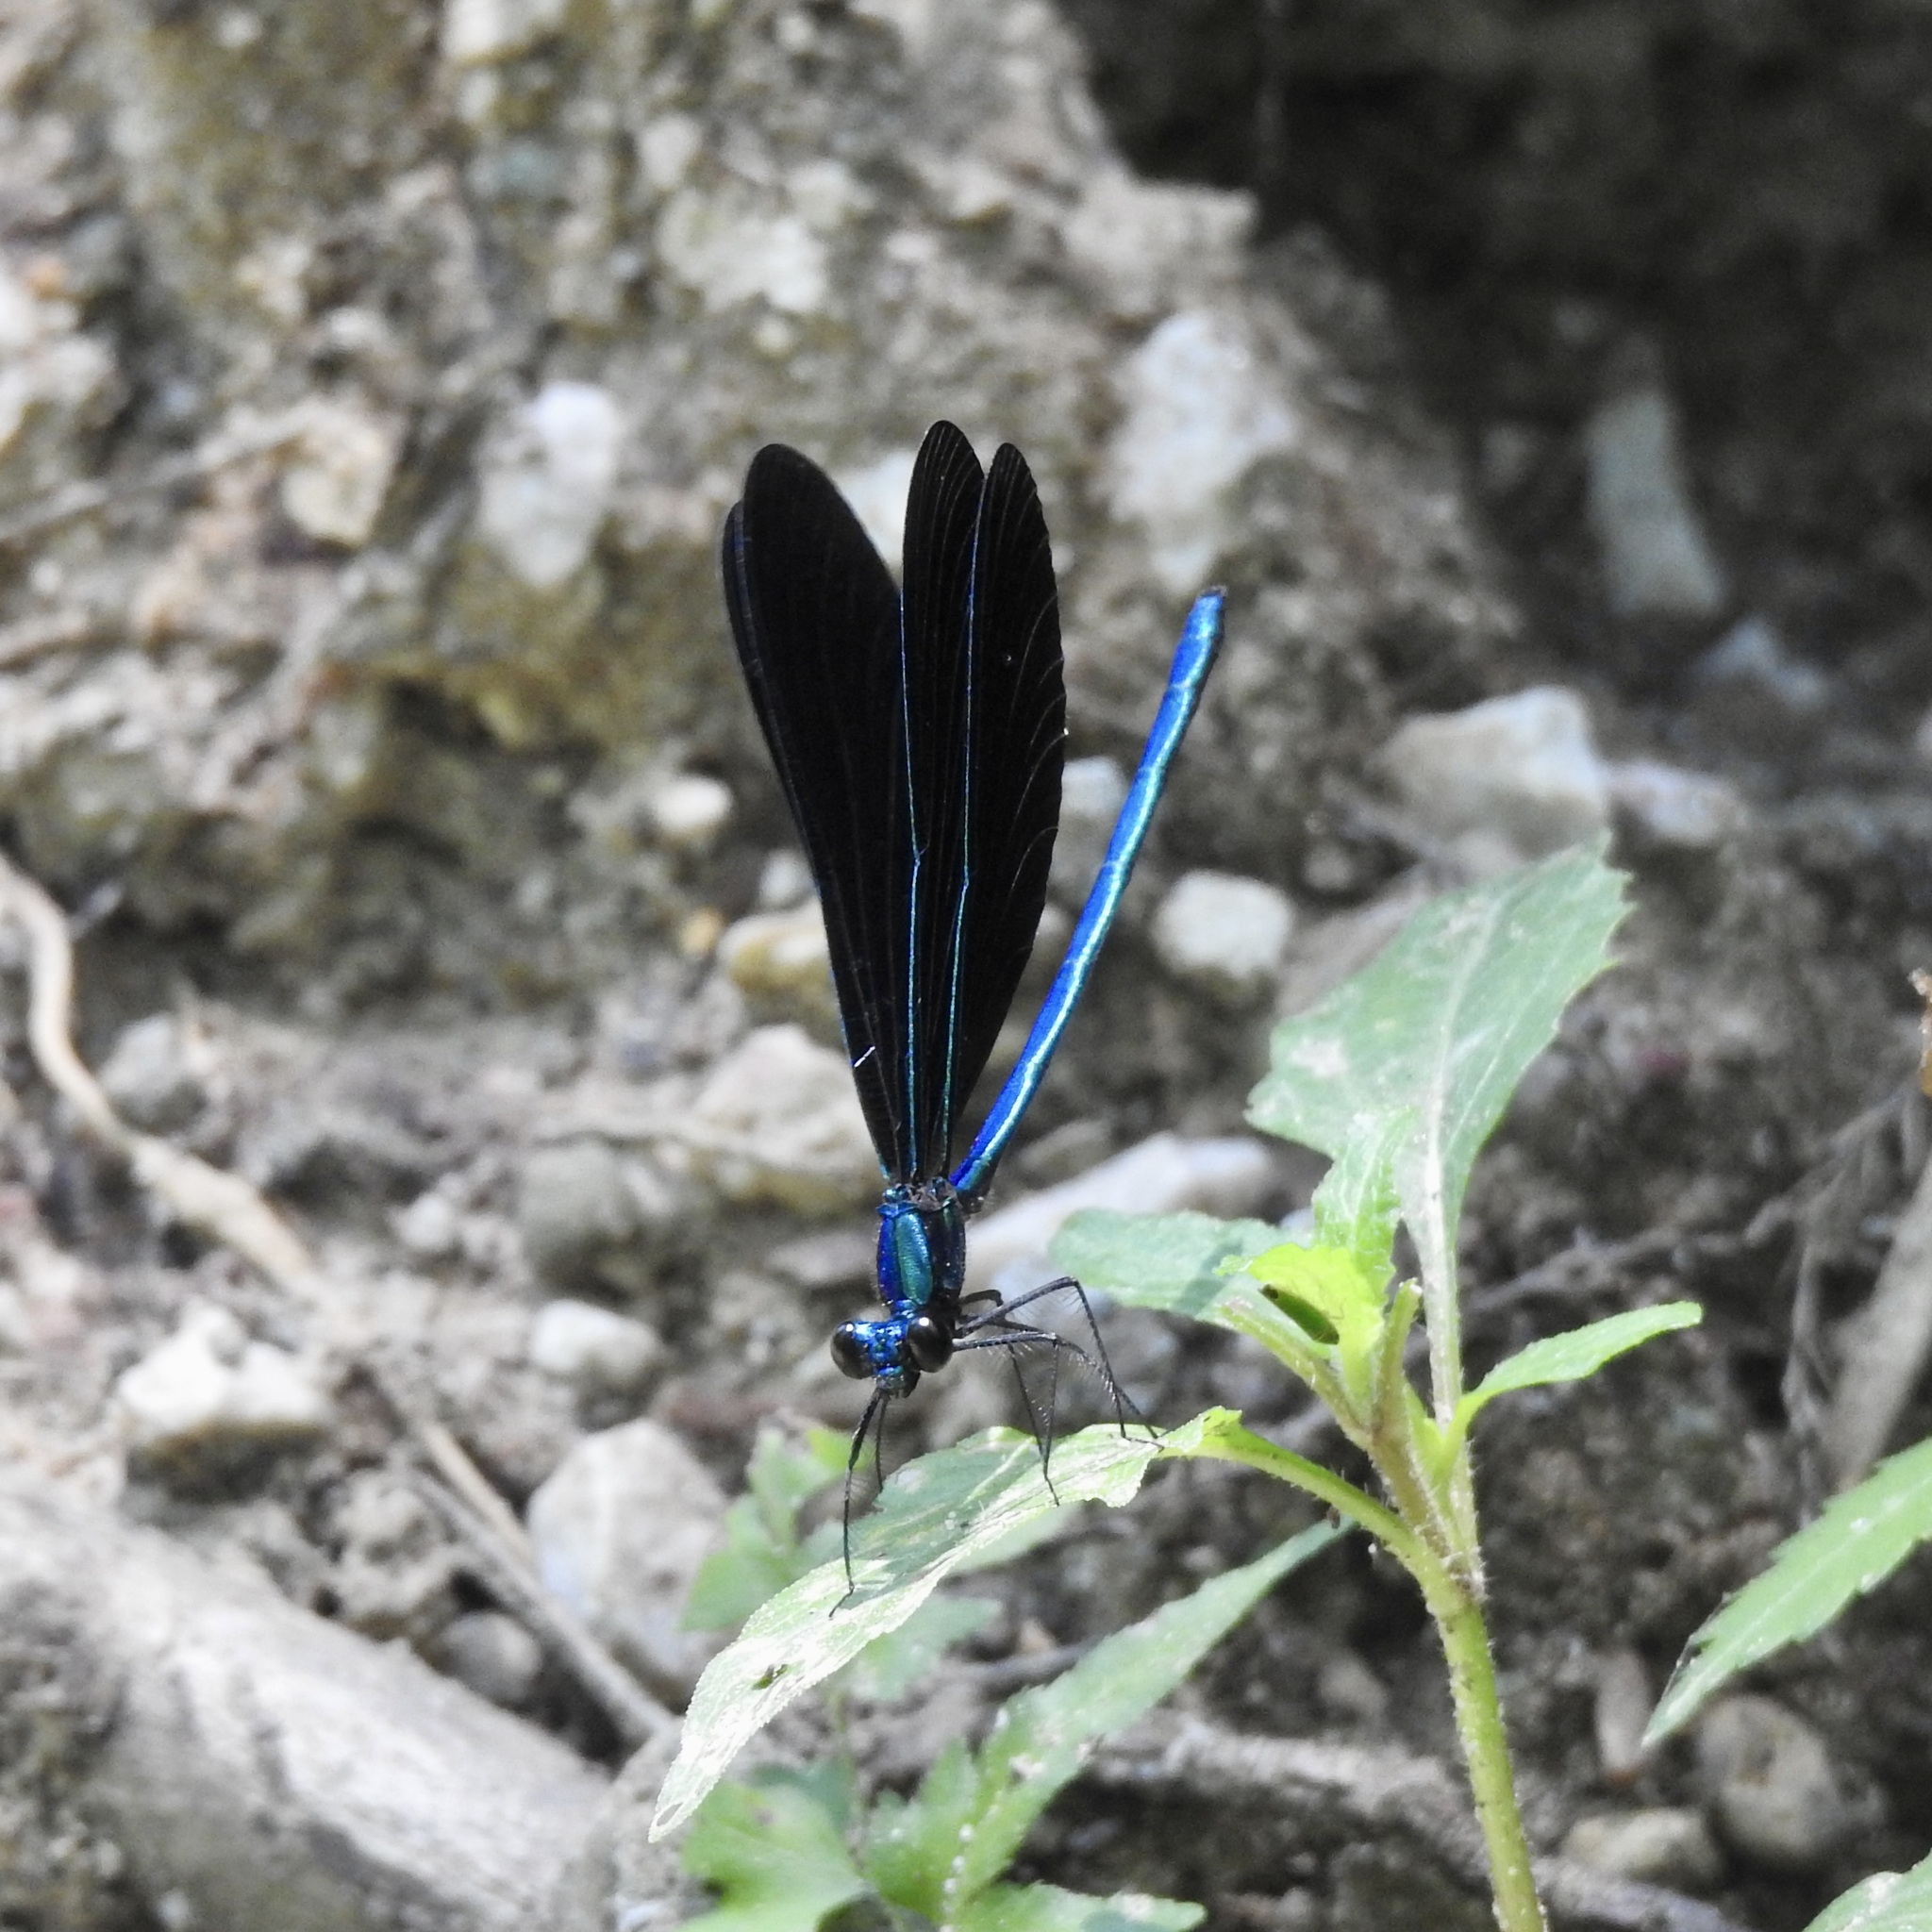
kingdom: Animalia
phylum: Arthropoda
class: Insecta
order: Odonata
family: Calopterygidae
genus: Calopteryx
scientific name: Calopteryx maculata
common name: Ebony jewelwing
